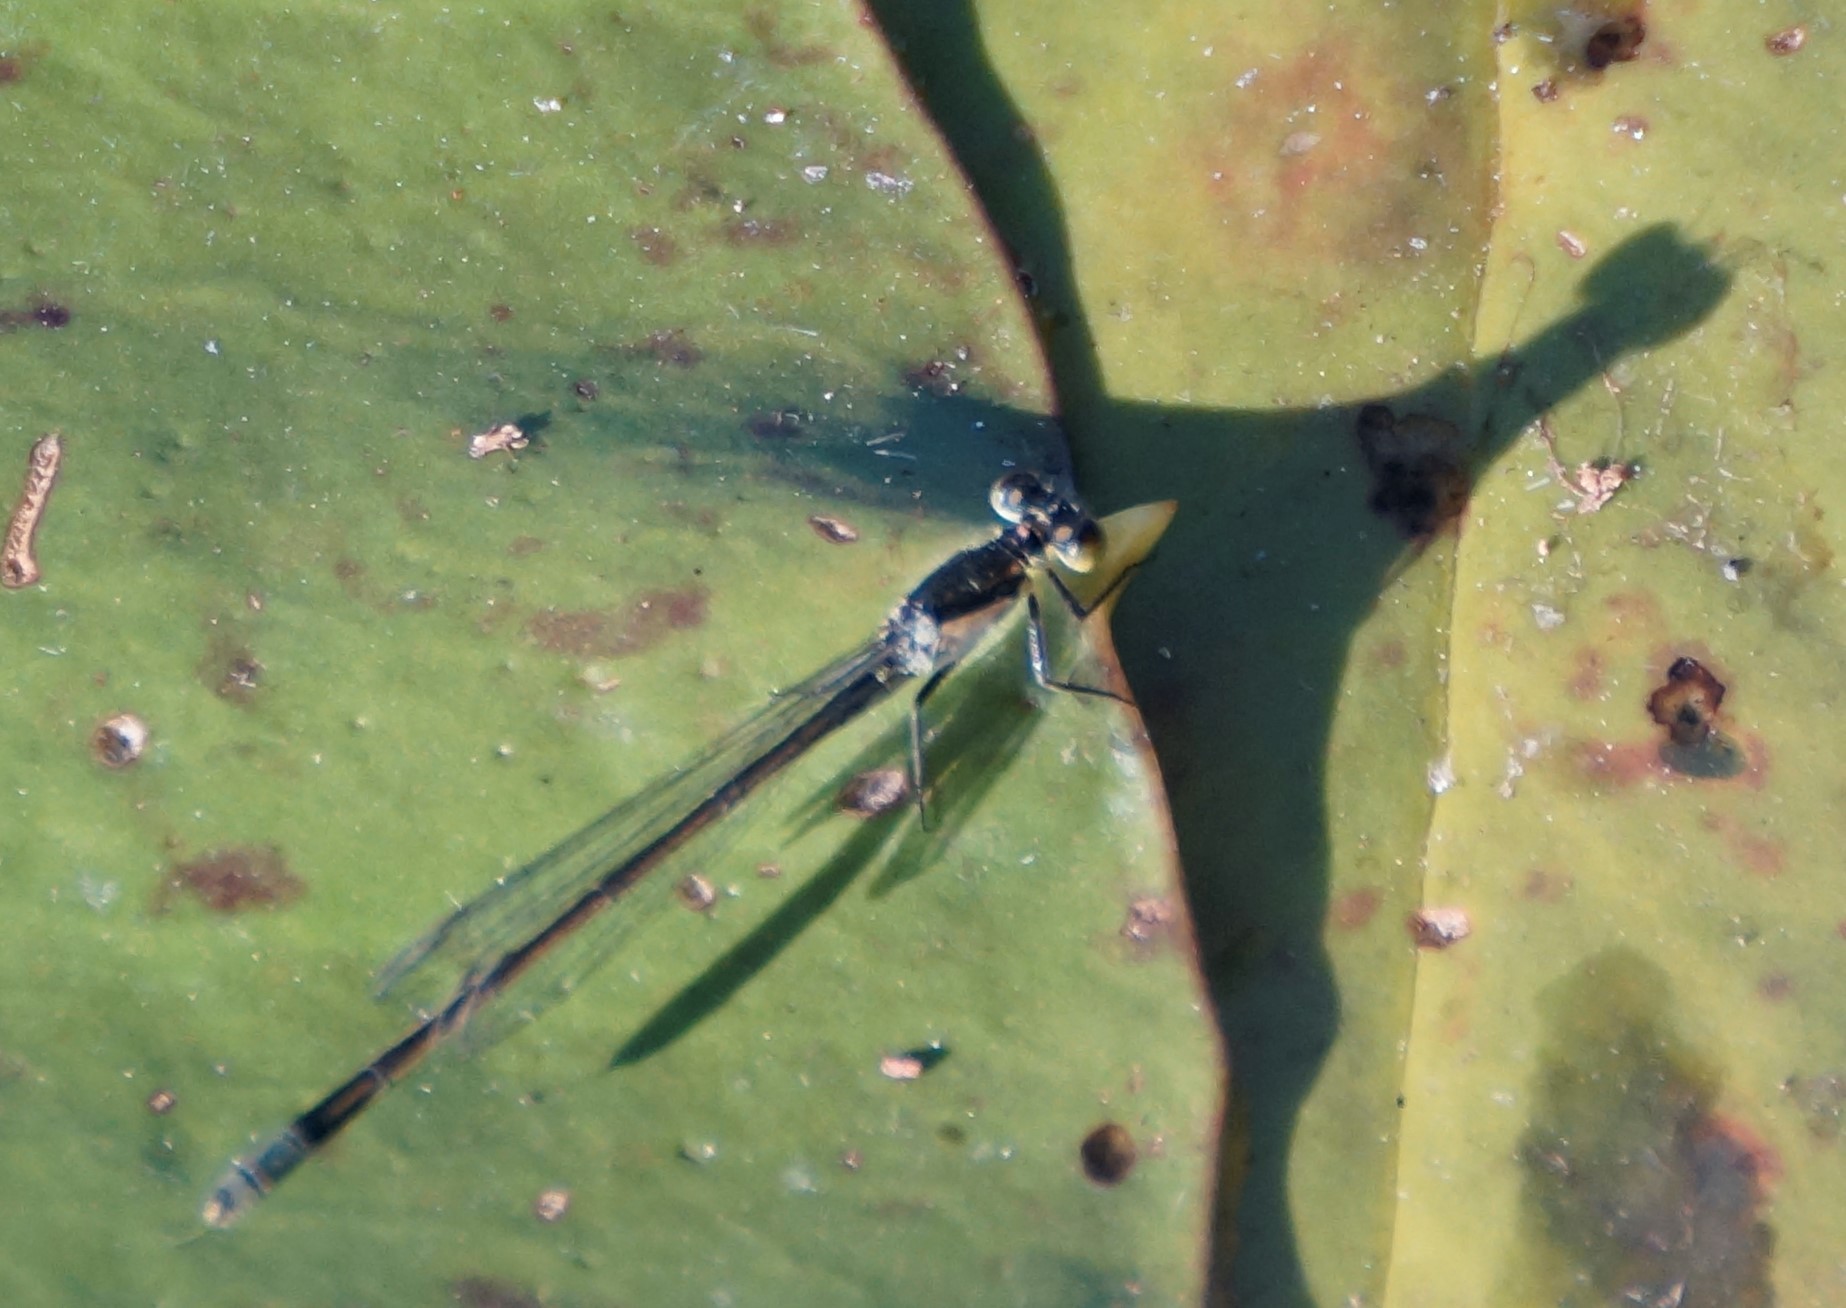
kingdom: Animalia
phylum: Arthropoda
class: Insecta
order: Odonata
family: Coenagrionidae
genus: Ischnura
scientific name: Ischnura heterosticta
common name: Common bluetail
